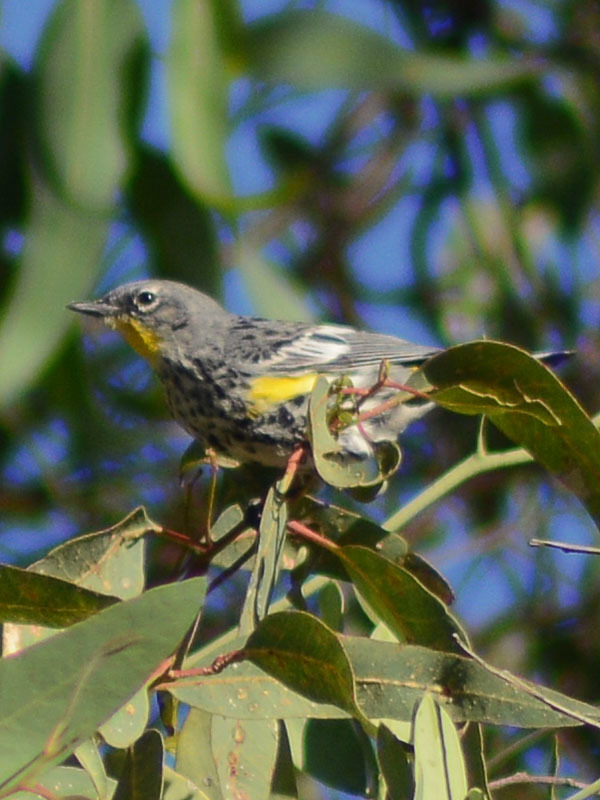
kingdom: Animalia
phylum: Chordata
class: Aves
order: Passeriformes
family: Parulidae
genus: Setophaga
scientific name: Setophaga auduboni
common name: Audubon's warbler
